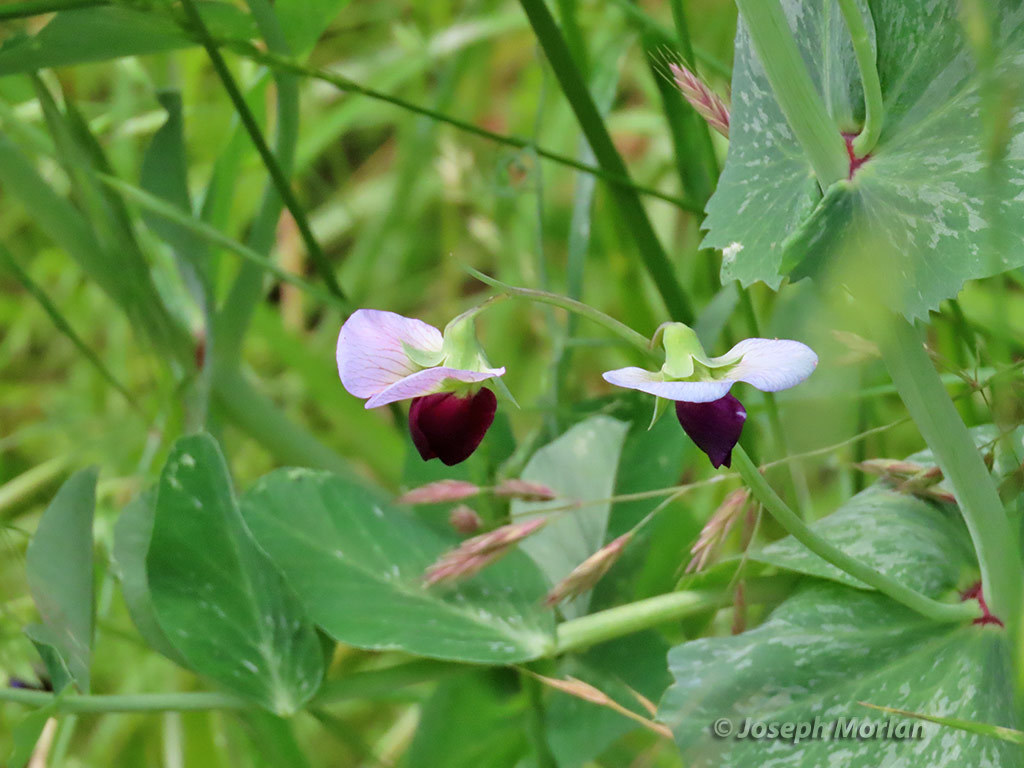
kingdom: Plantae
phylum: Tracheophyta
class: Magnoliopsida
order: Fabales
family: Fabaceae
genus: Lathyrus
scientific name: Lathyrus oleraceus
